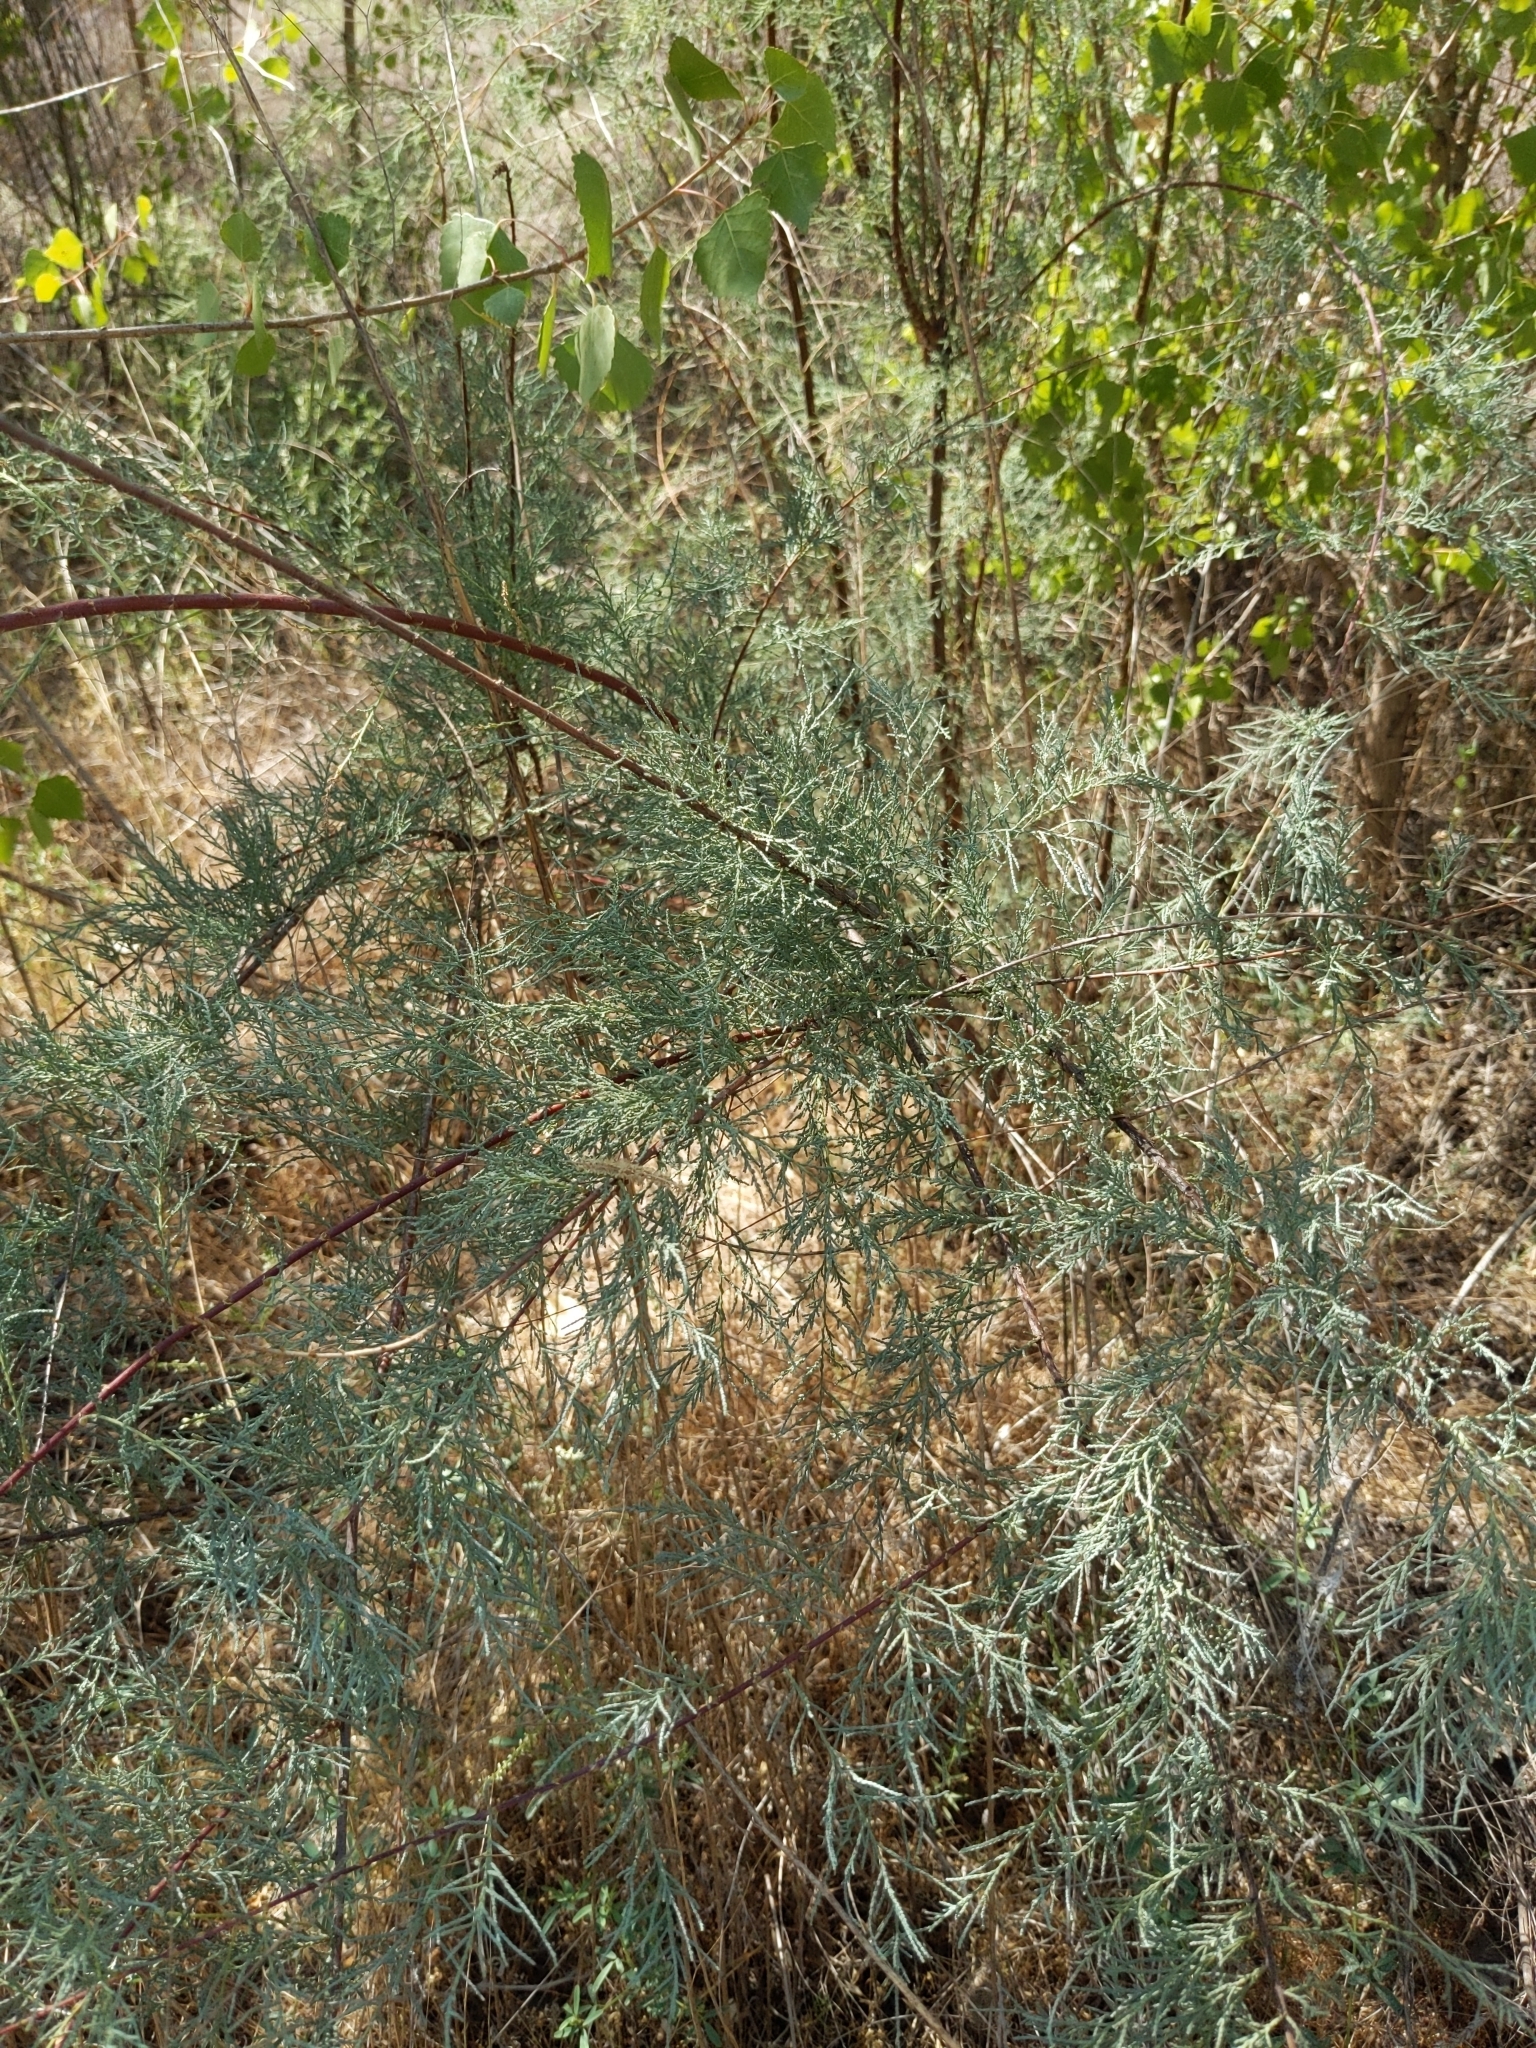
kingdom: Plantae
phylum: Tracheophyta
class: Magnoliopsida
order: Caryophyllales
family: Tamaricaceae
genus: Tamarix
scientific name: Tamarix
